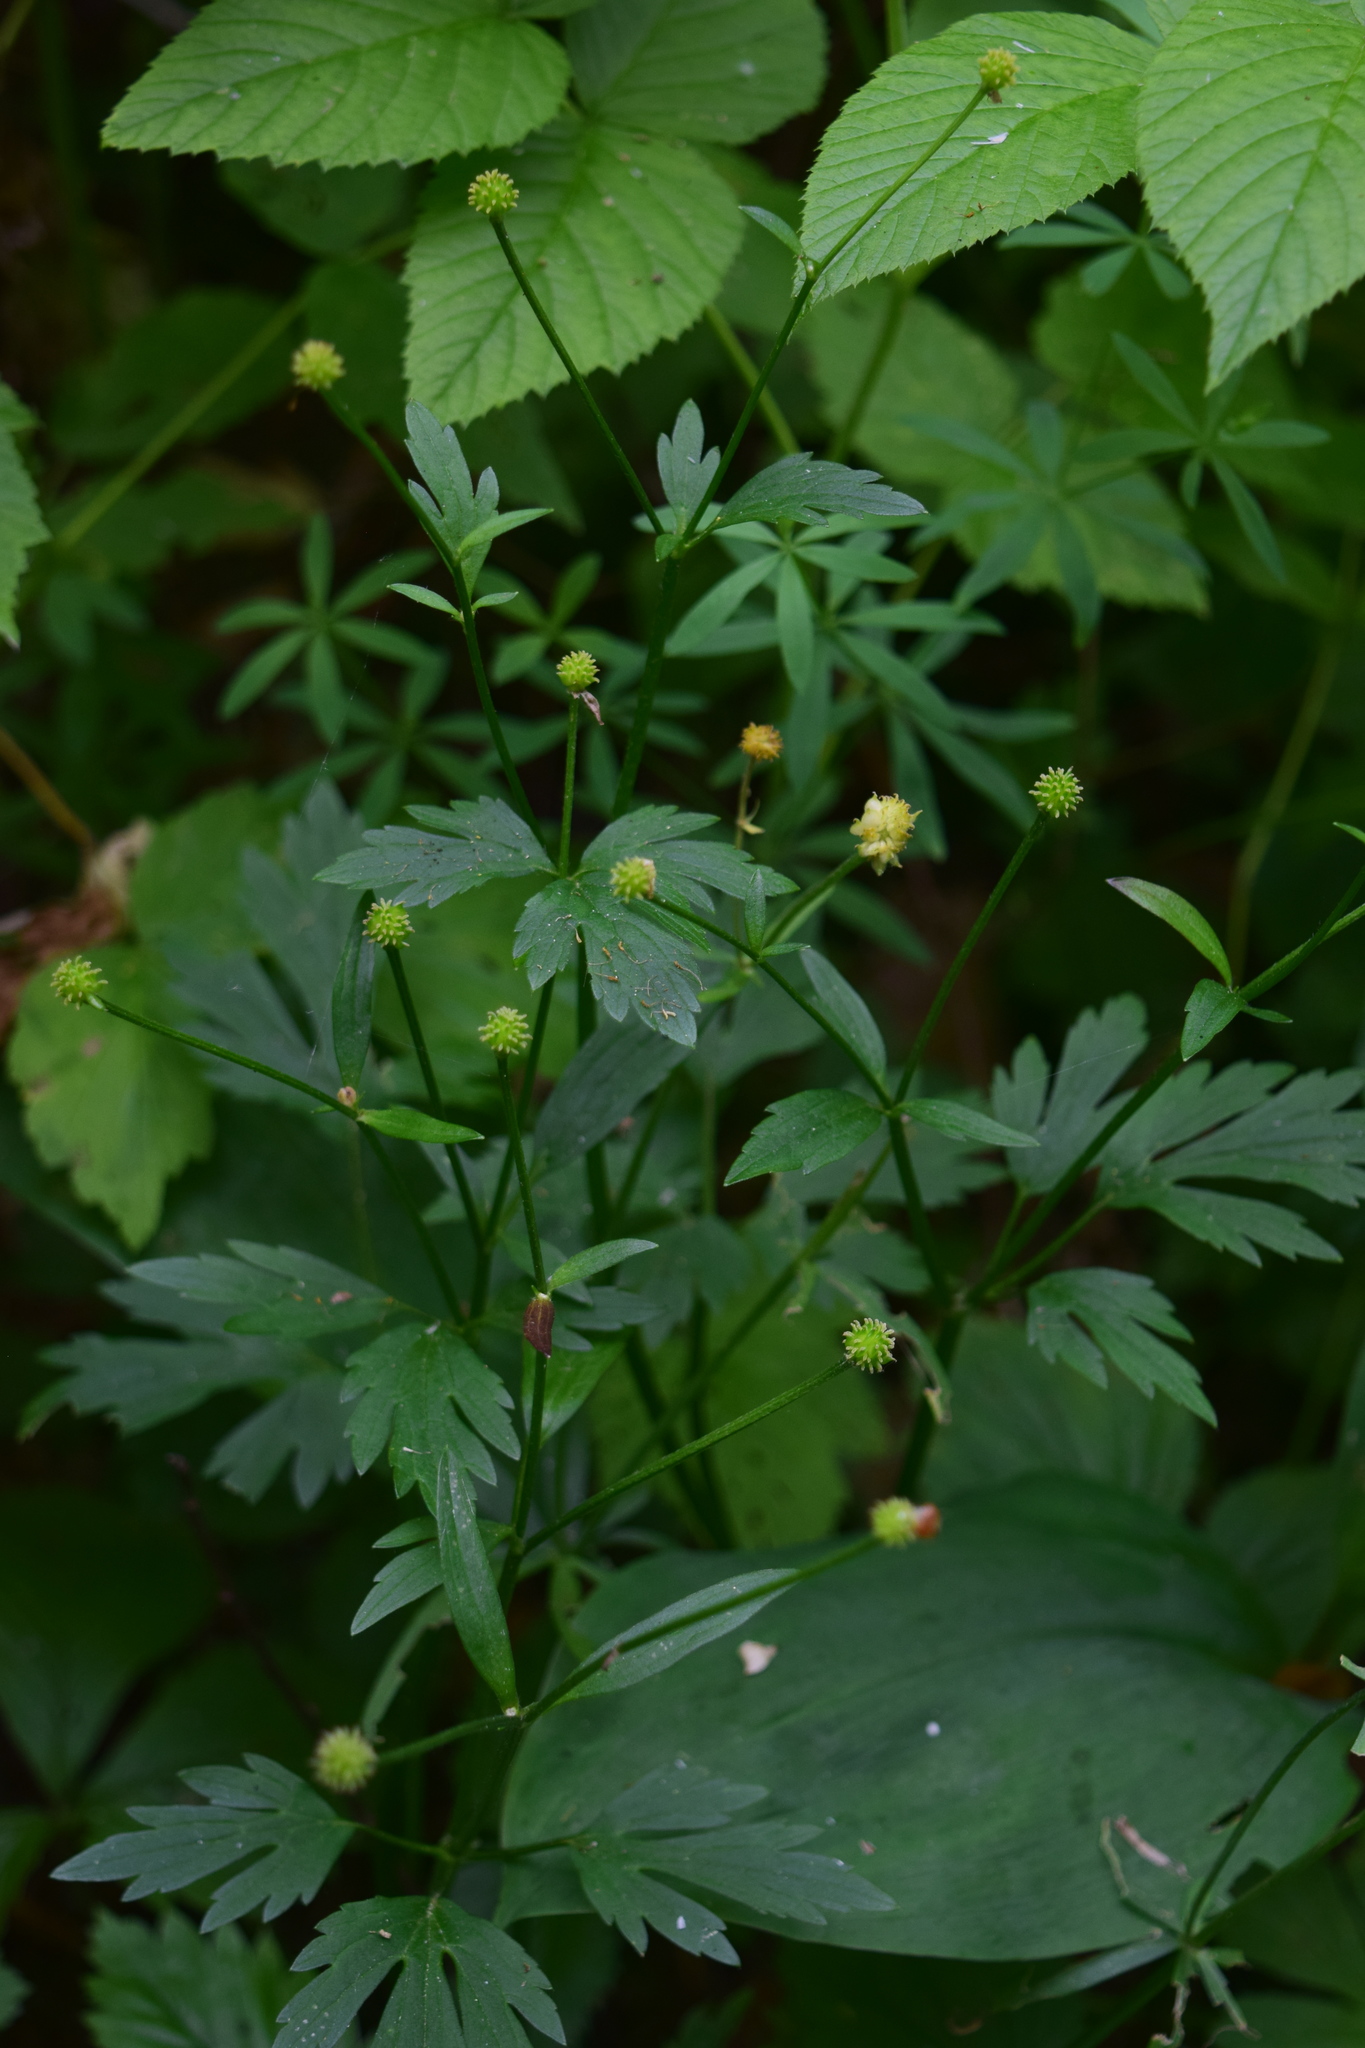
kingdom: Plantae
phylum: Tracheophyta
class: Magnoliopsida
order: Ranunculales
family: Ranunculaceae
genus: Ranunculus
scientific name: Ranunculus repens
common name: Creeping buttercup
